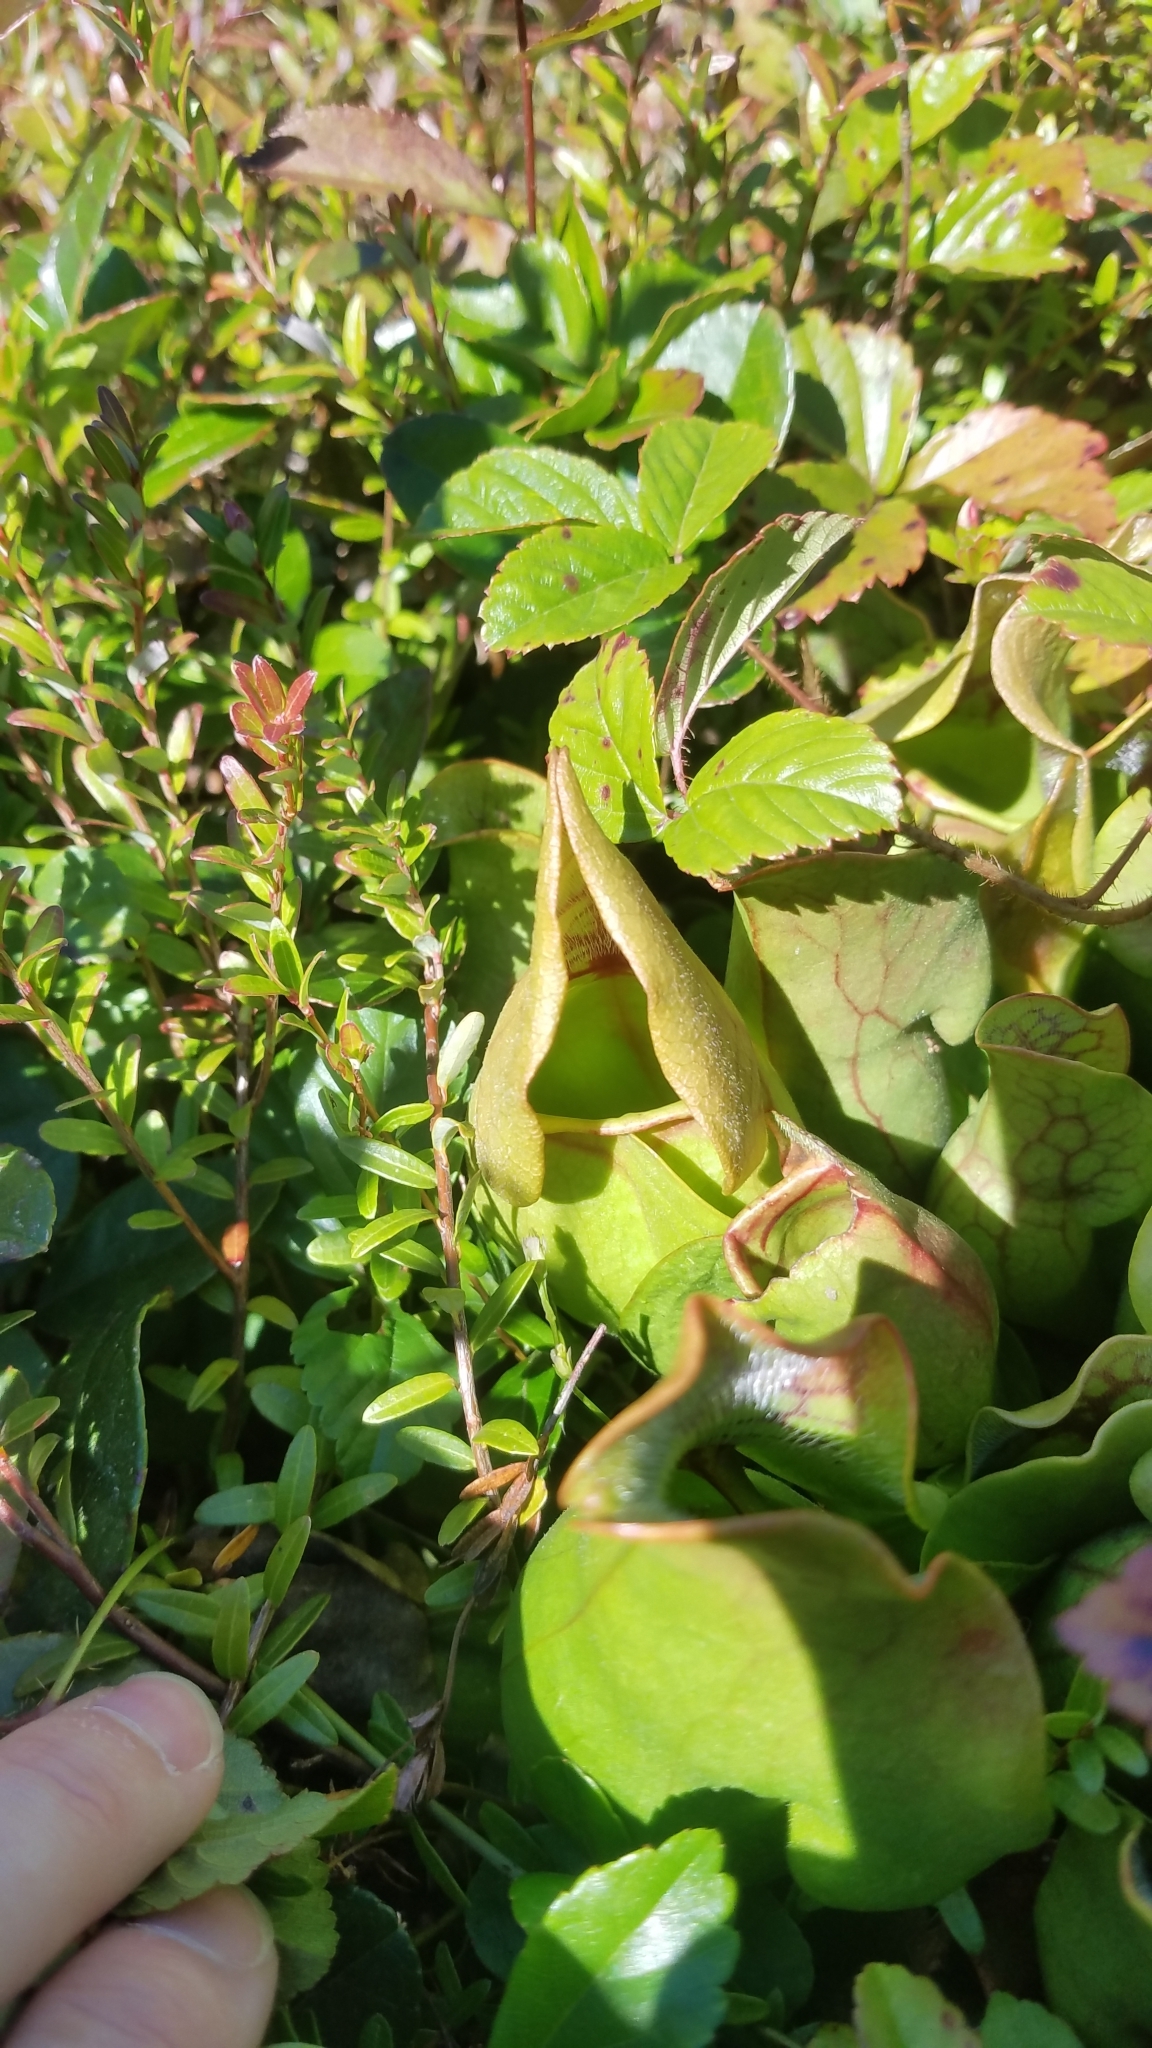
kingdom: Plantae
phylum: Tracheophyta
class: Magnoliopsida
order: Ericales
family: Sarraceniaceae
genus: Sarracenia
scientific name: Sarracenia purpurea
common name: Pitcherplant
